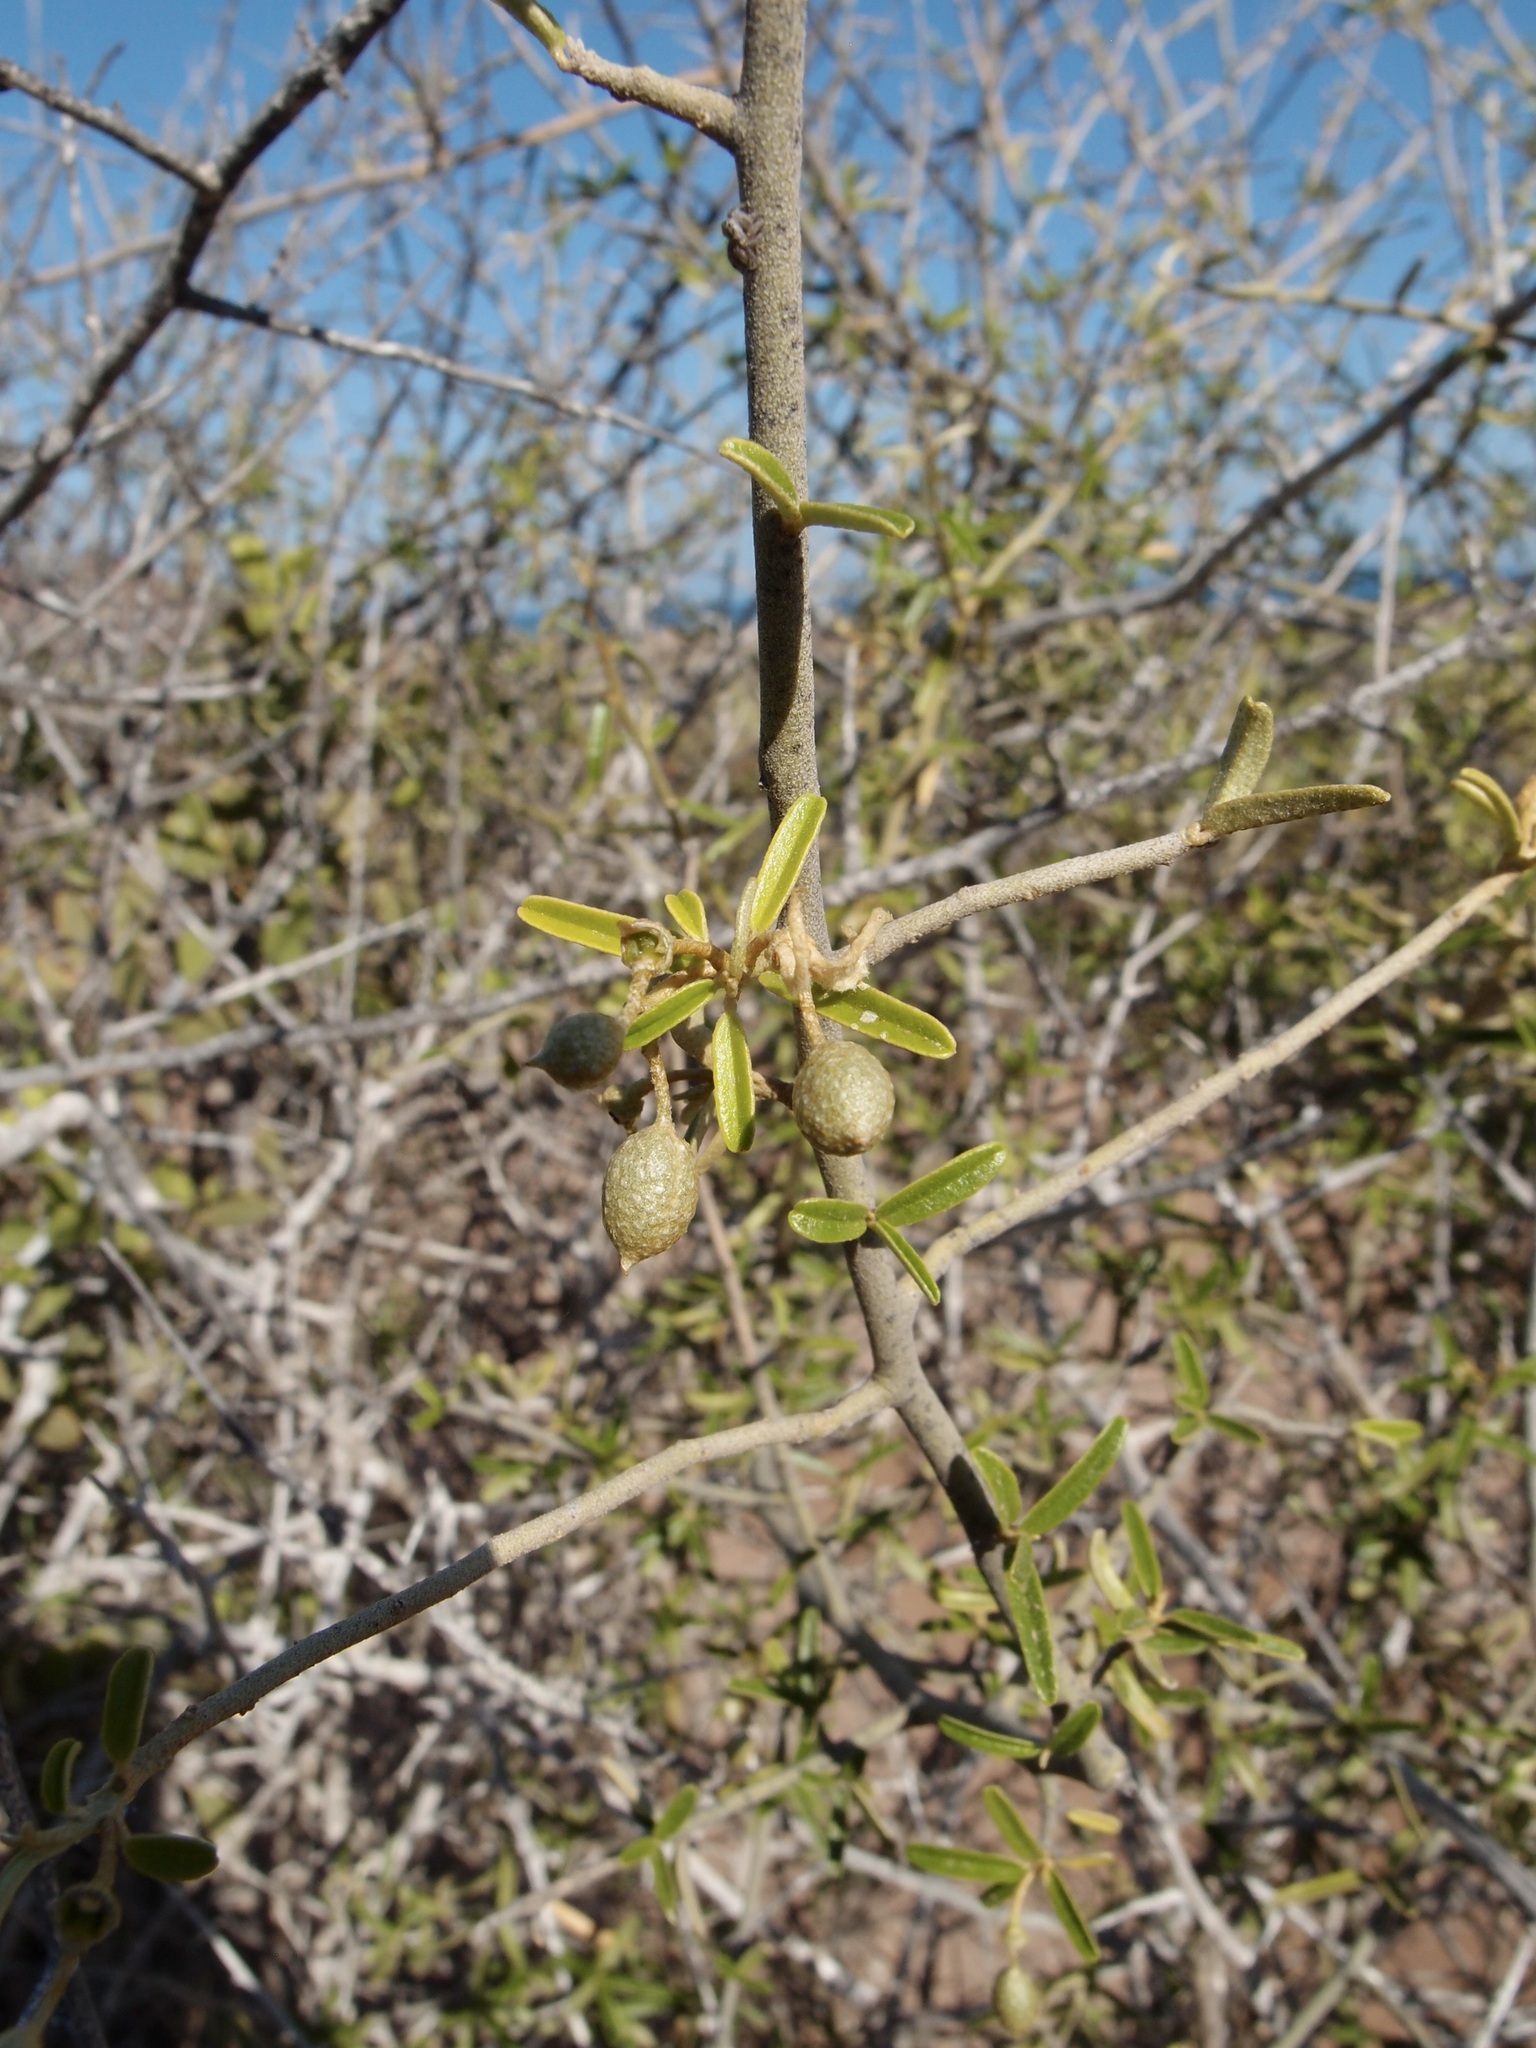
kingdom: Plantae
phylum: Tracheophyta
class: Magnoliopsida
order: Brassicales
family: Capparaceae
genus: Atamisquea
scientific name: Atamisquea emarginata
